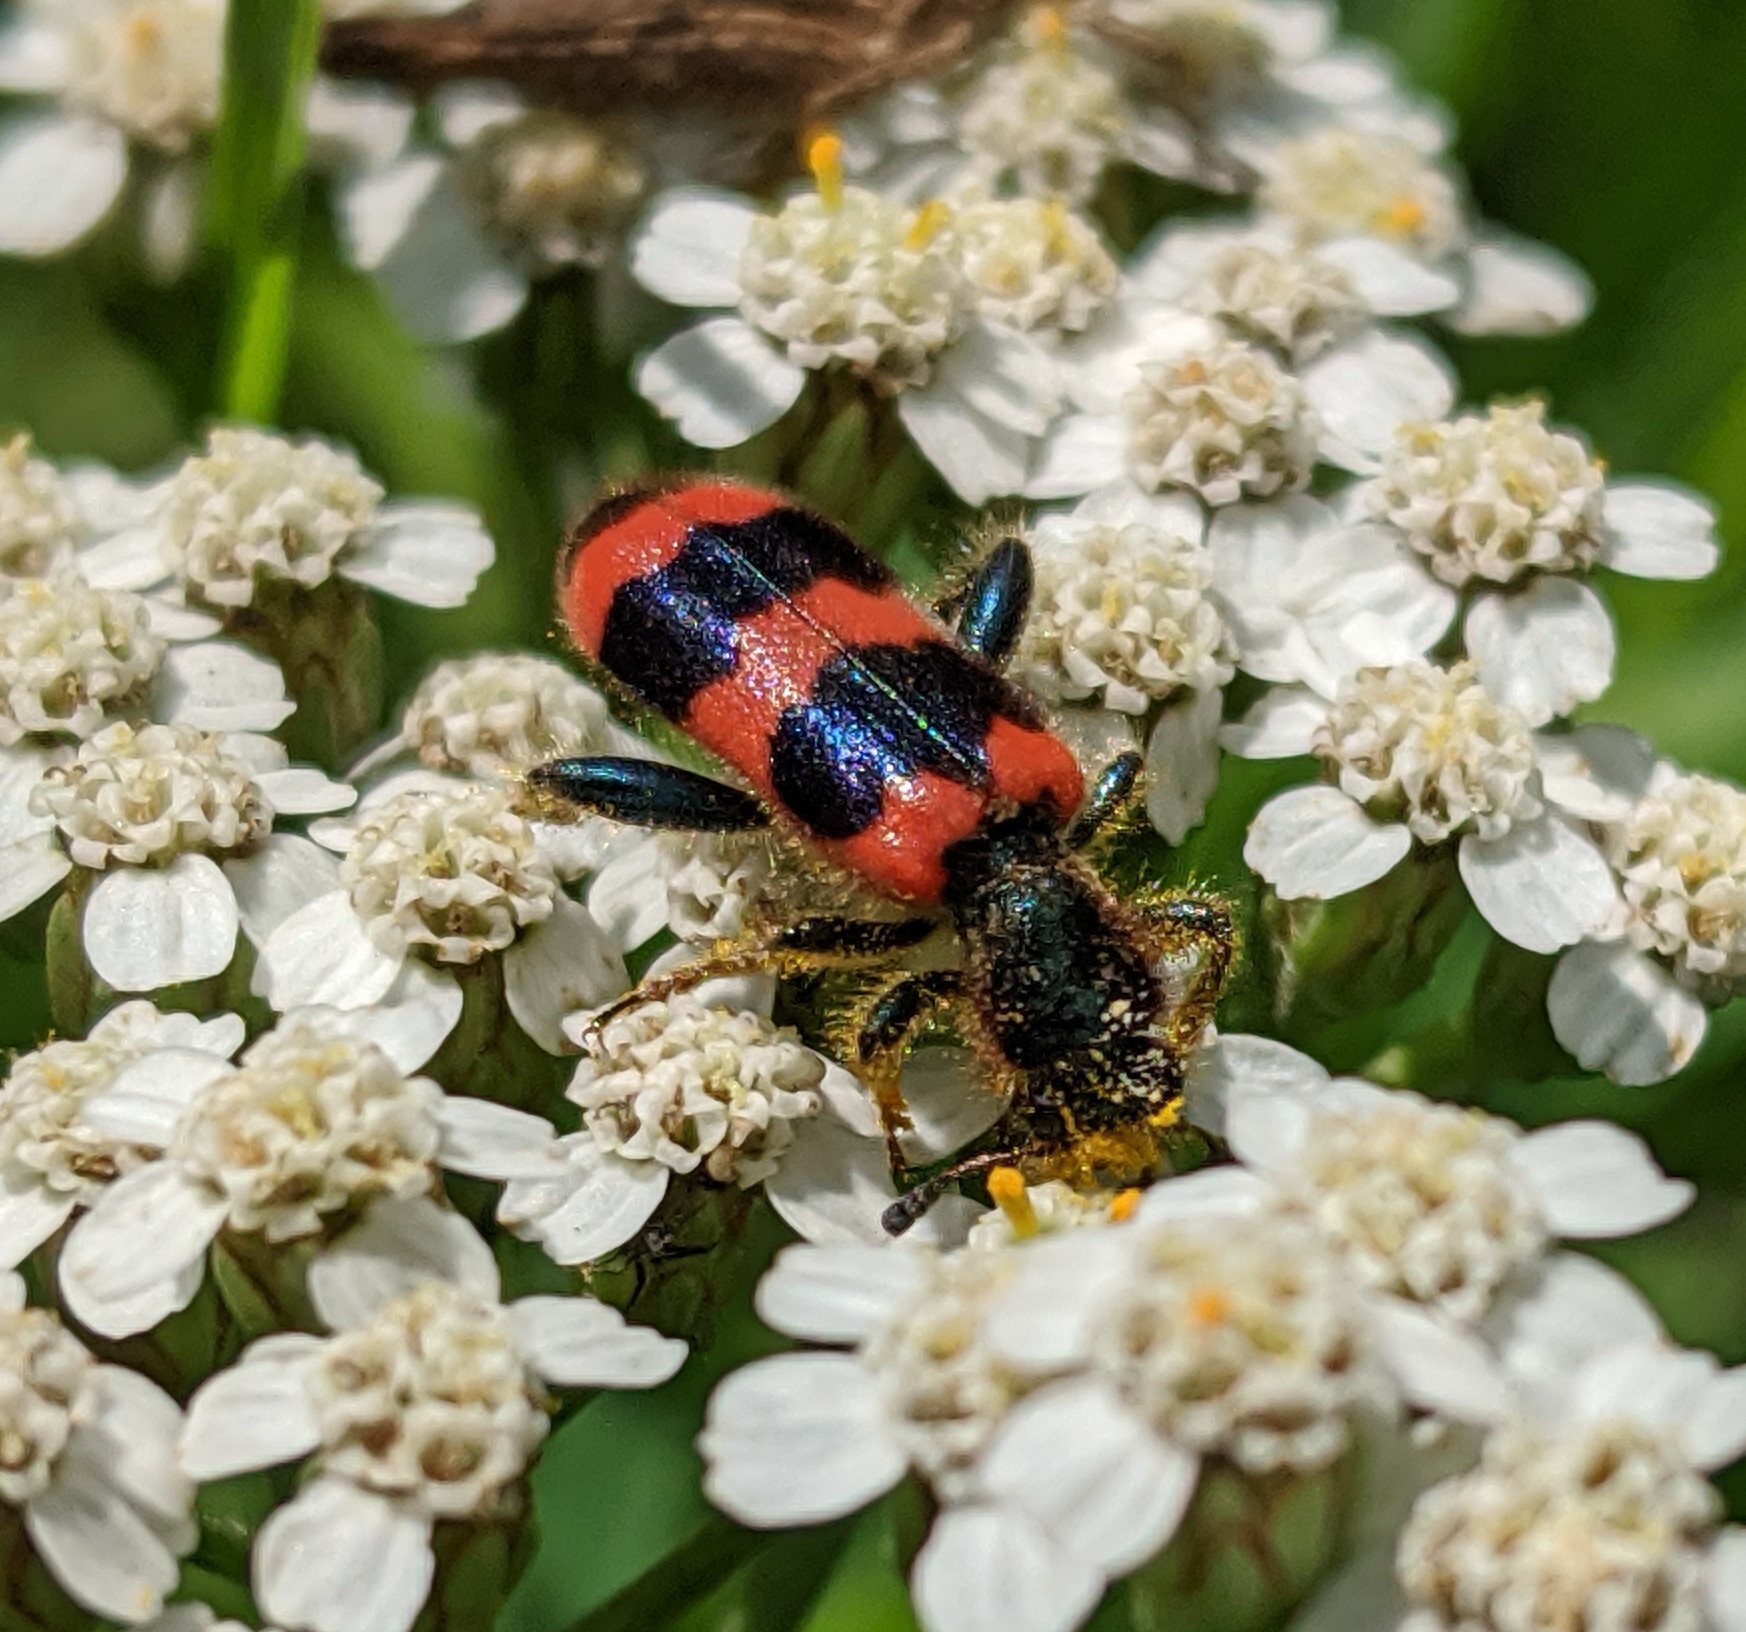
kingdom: Animalia
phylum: Arthropoda
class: Insecta
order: Coleoptera
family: Cleridae
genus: Trichodes
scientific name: Trichodes apiarius
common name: Bee-eating beetle
